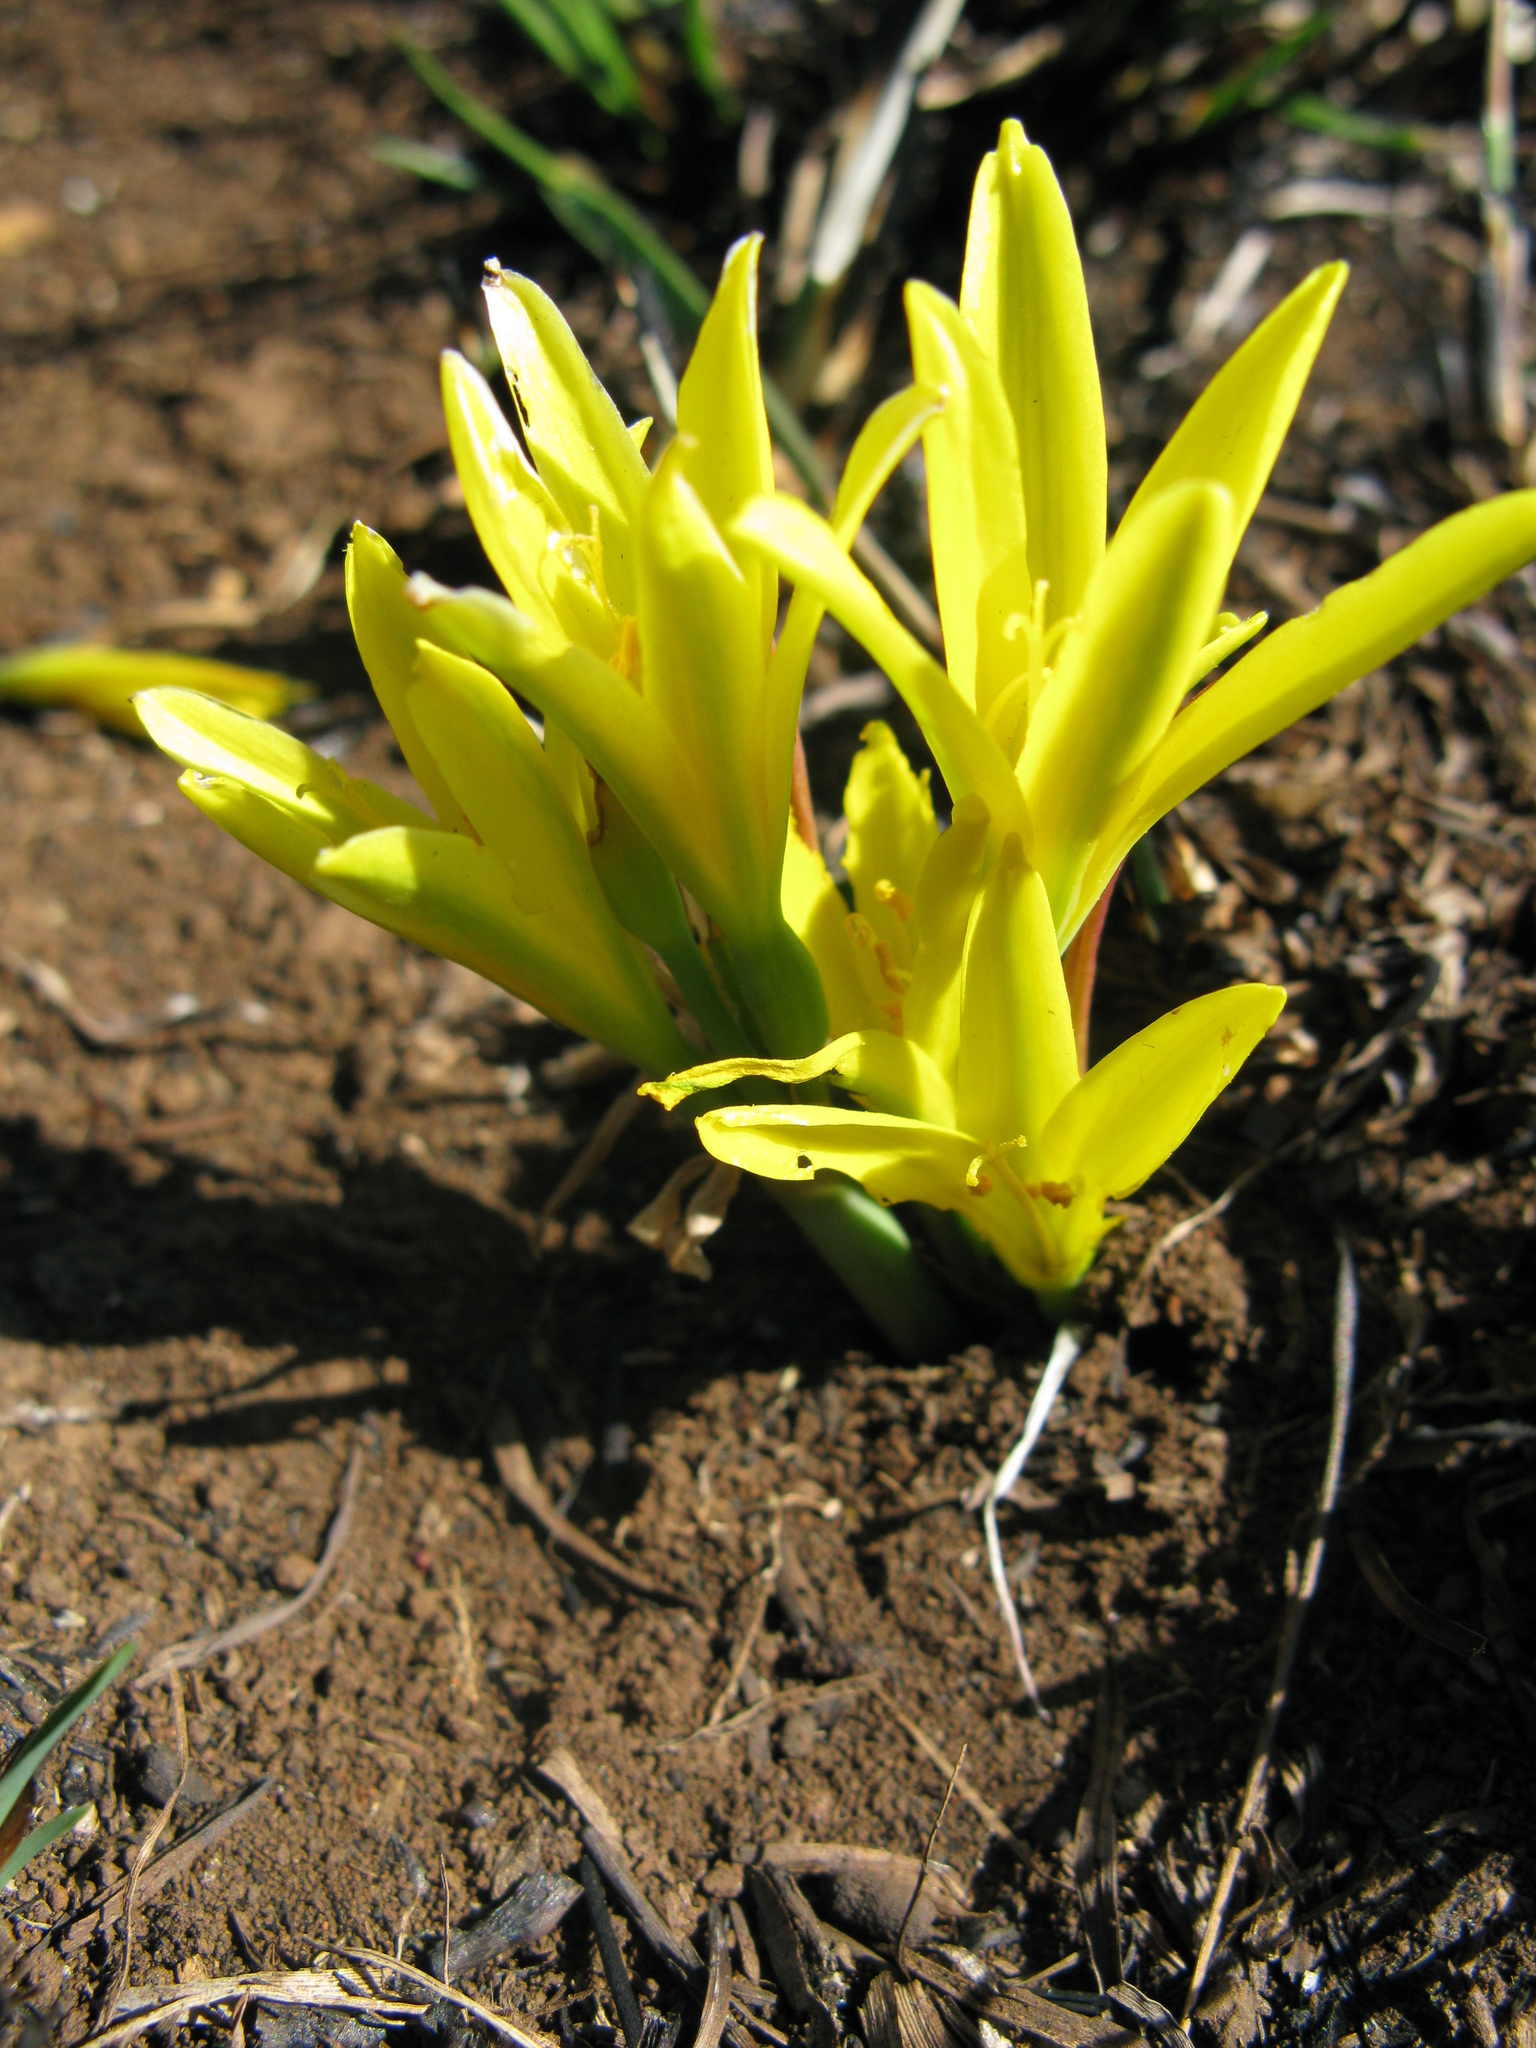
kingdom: Plantae
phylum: Tracheophyta
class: Liliopsida
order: Asparagales
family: Amaryllidaceae
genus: Cyrtanthus
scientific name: Cyrtanthus breviflorus
